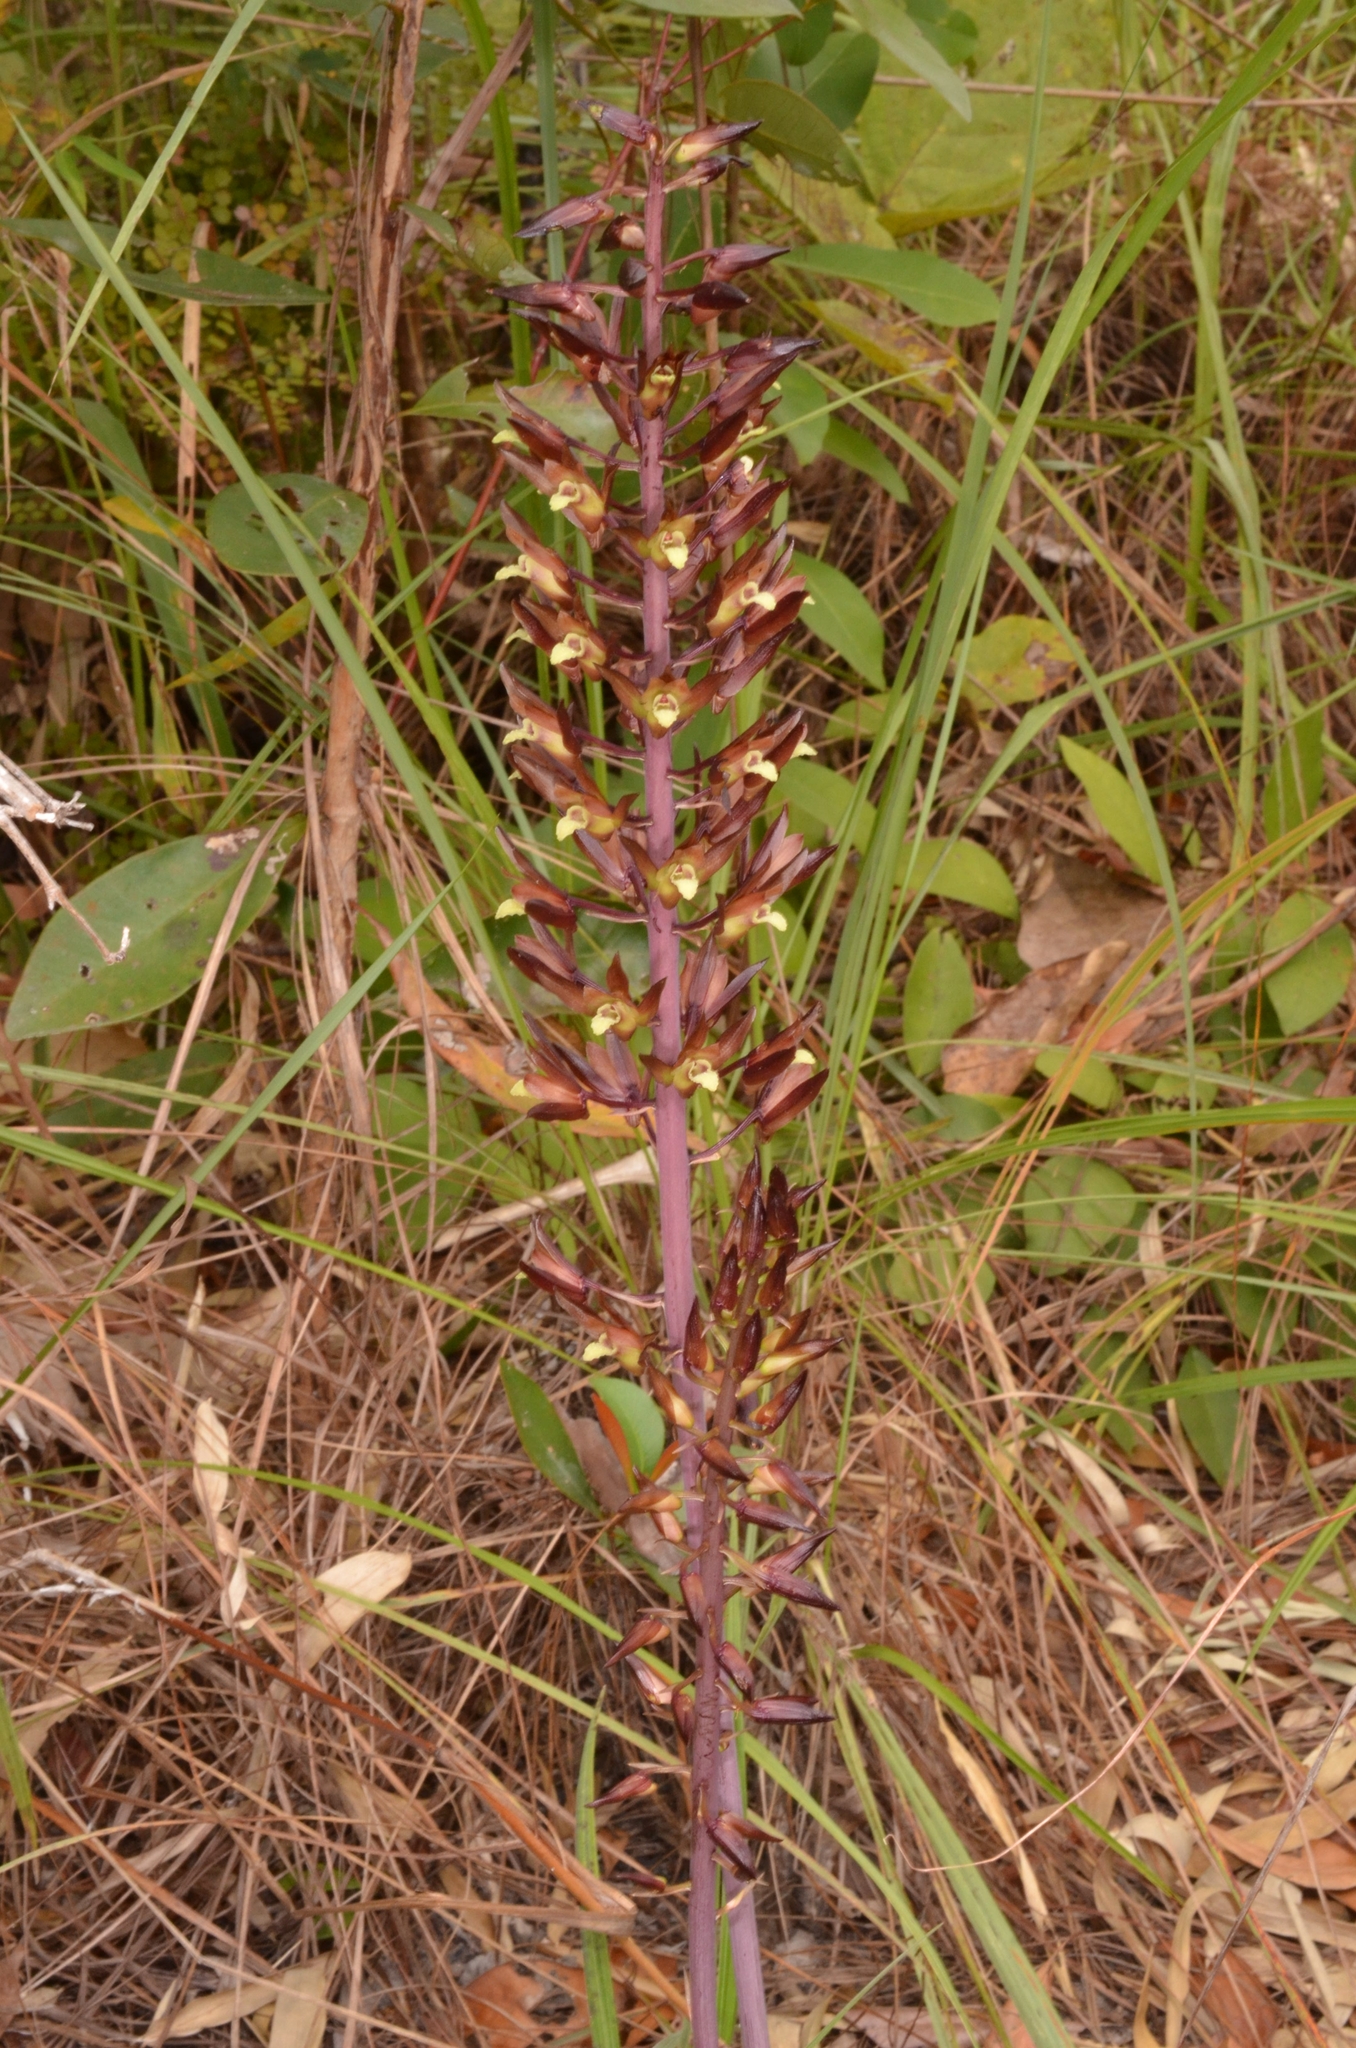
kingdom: Plantae
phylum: Tracheophyta
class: Liliopsida
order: Asparagales
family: Orchidaceae
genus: Eulophia
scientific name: Eulophia zollingeri
